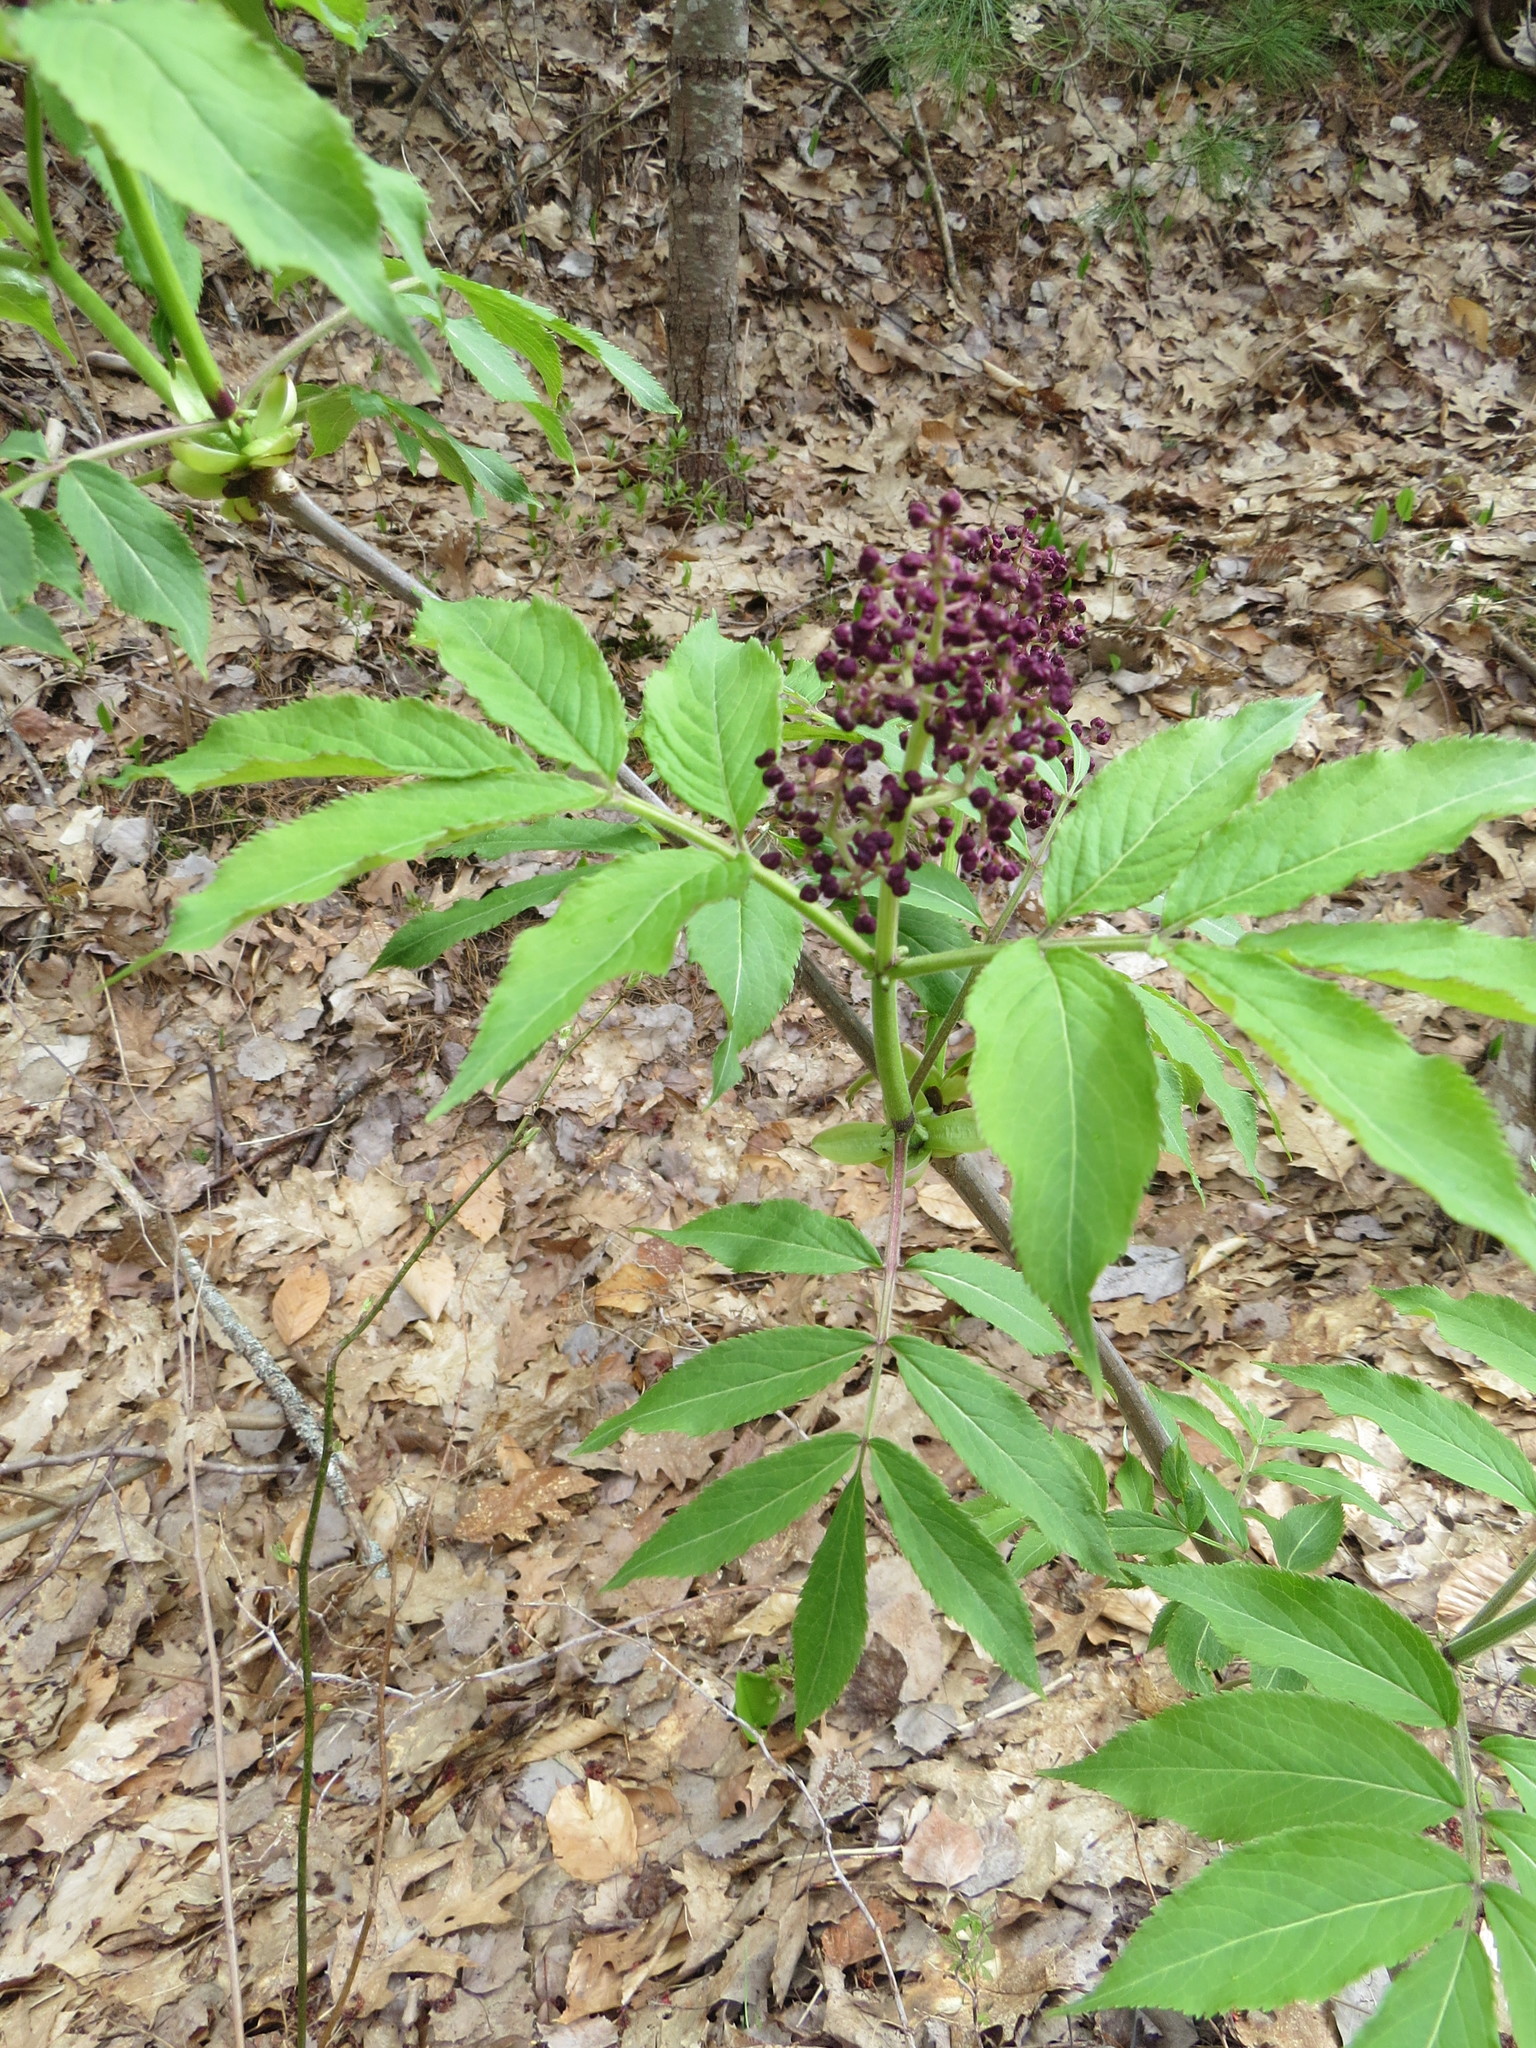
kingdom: Plantae
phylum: Tracheophyta
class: Magnoliopsida
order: Dipsacales
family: Viburnaceae
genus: Sambucus
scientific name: Sambucus racemosa
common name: Red-berried elder
